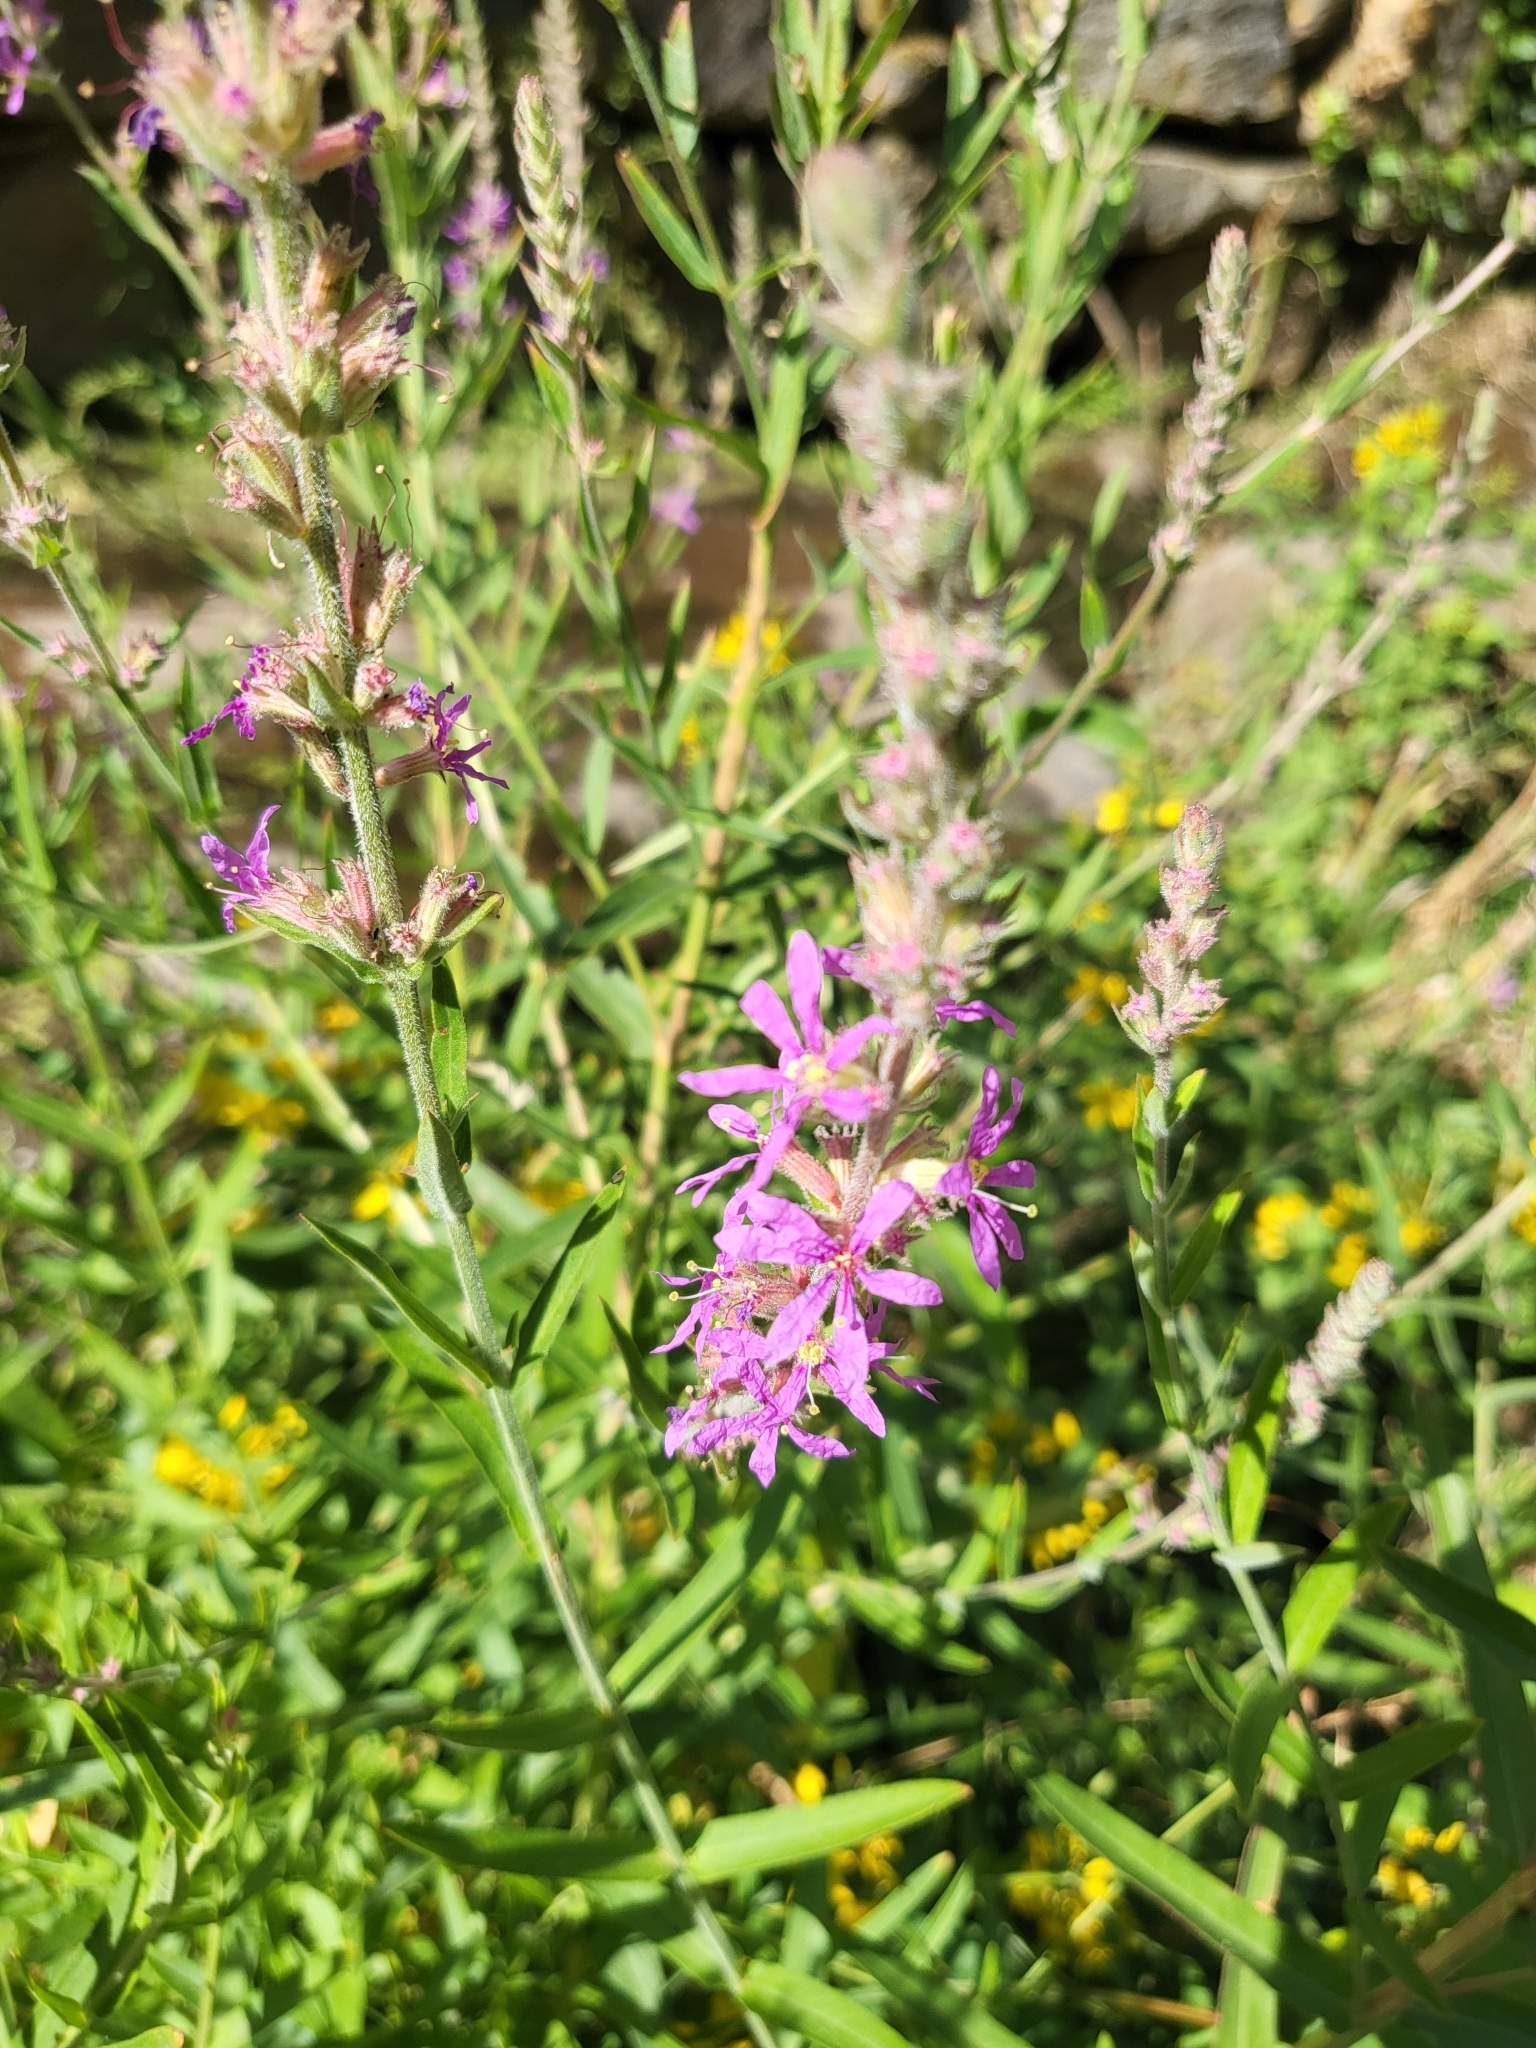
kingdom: Plantae
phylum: Tracheophyta
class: Magnoliopsida
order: Myrtales
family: Lythraceae
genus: Lythrum
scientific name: Lythrum salicaria
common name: Purple loosestrife
